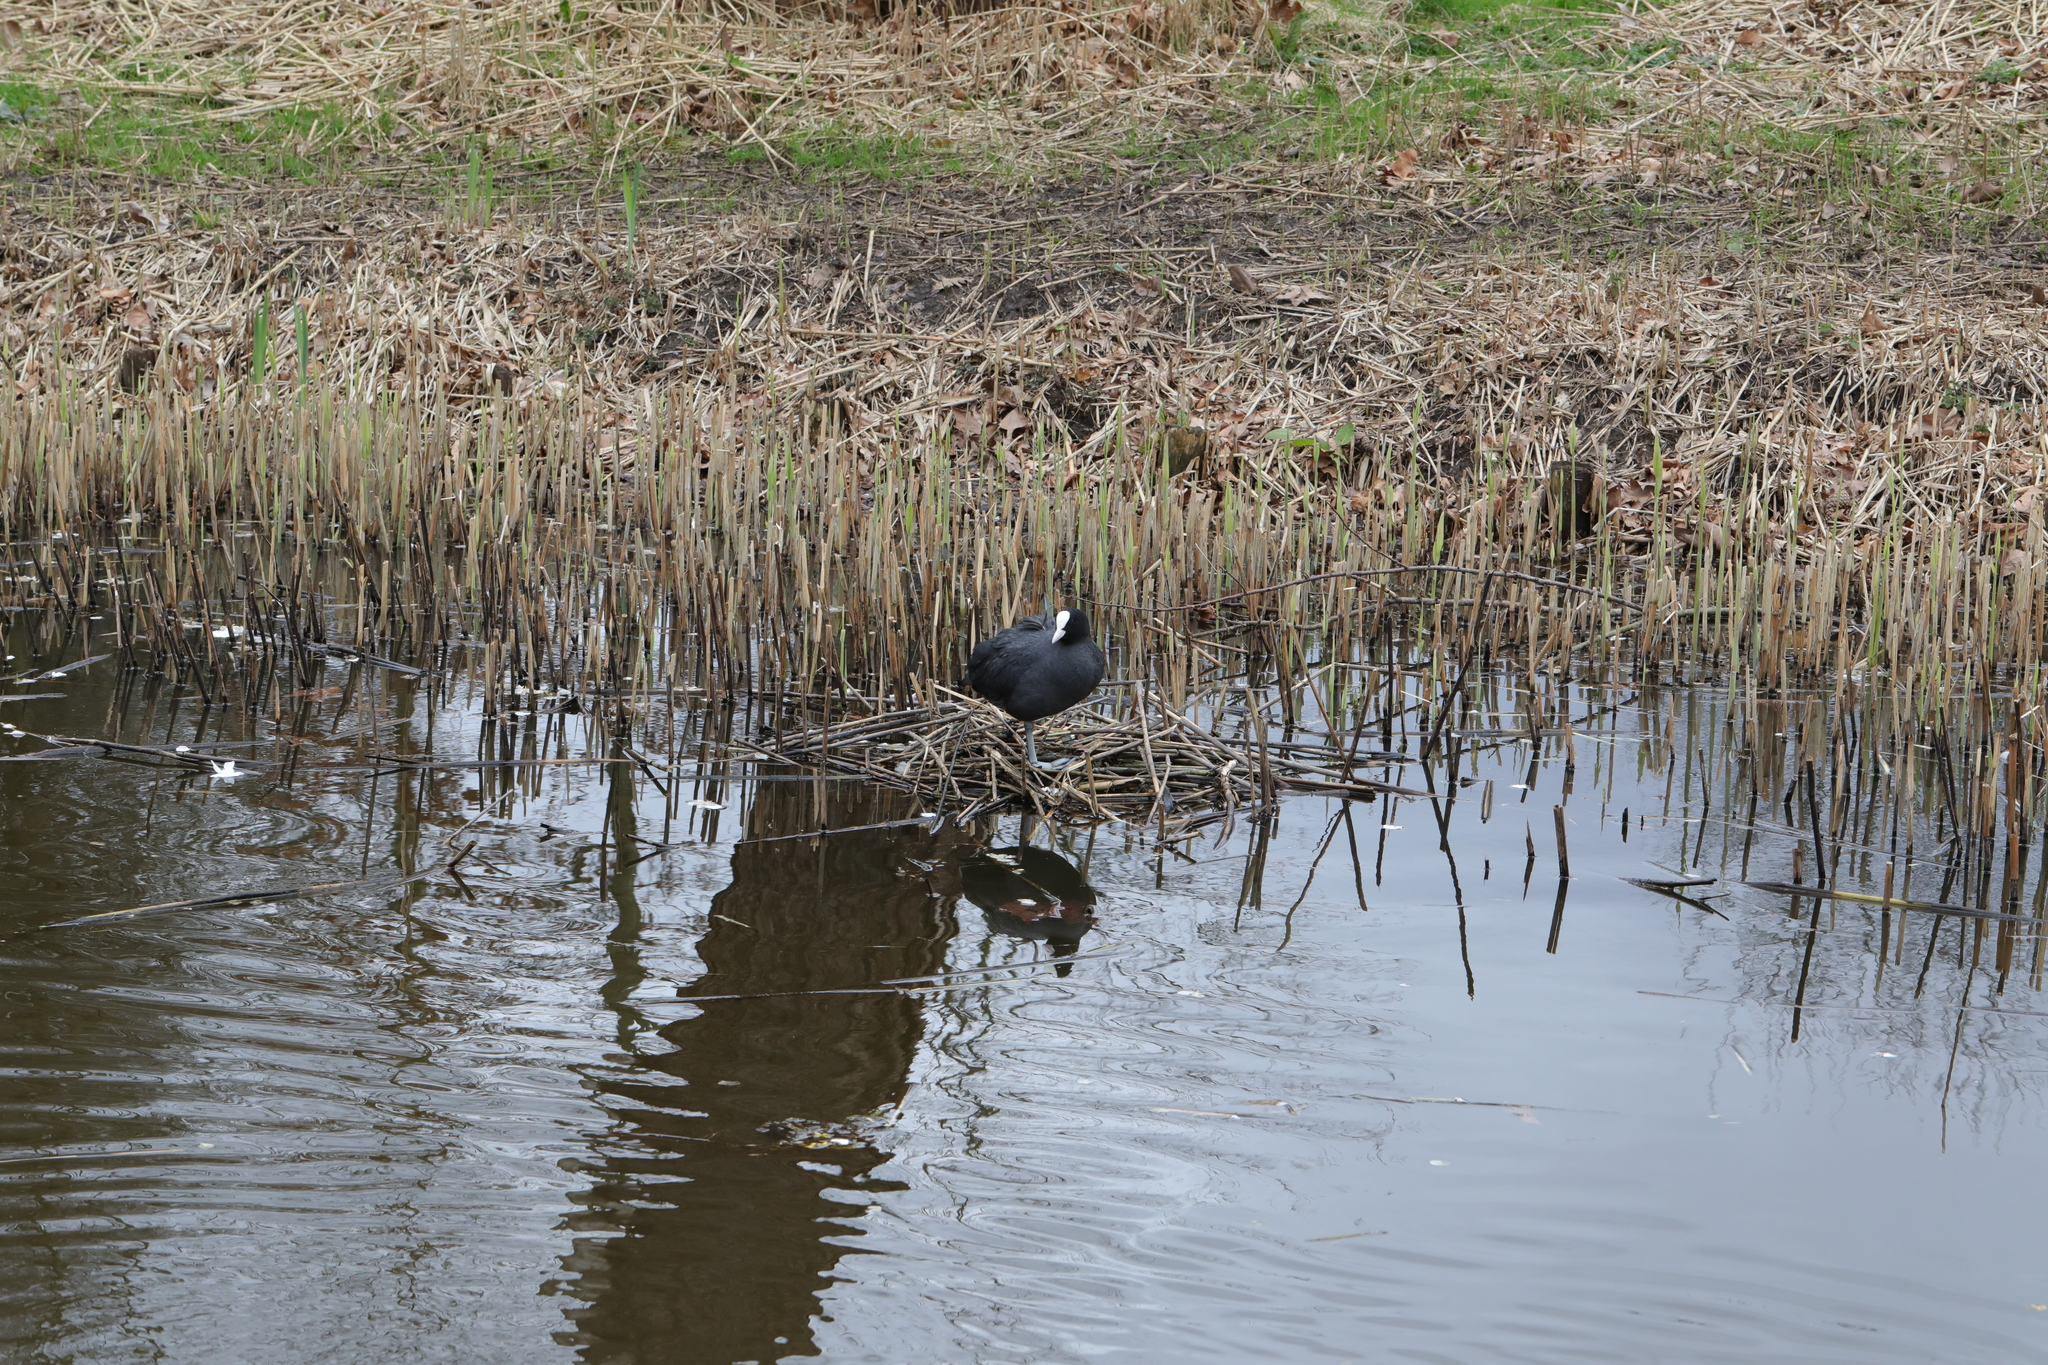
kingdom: Animalia
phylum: Chordata
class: Aves
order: Gruiformes
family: Rallidae
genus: Fulica
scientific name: Fulica atra
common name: Eurasian coot
